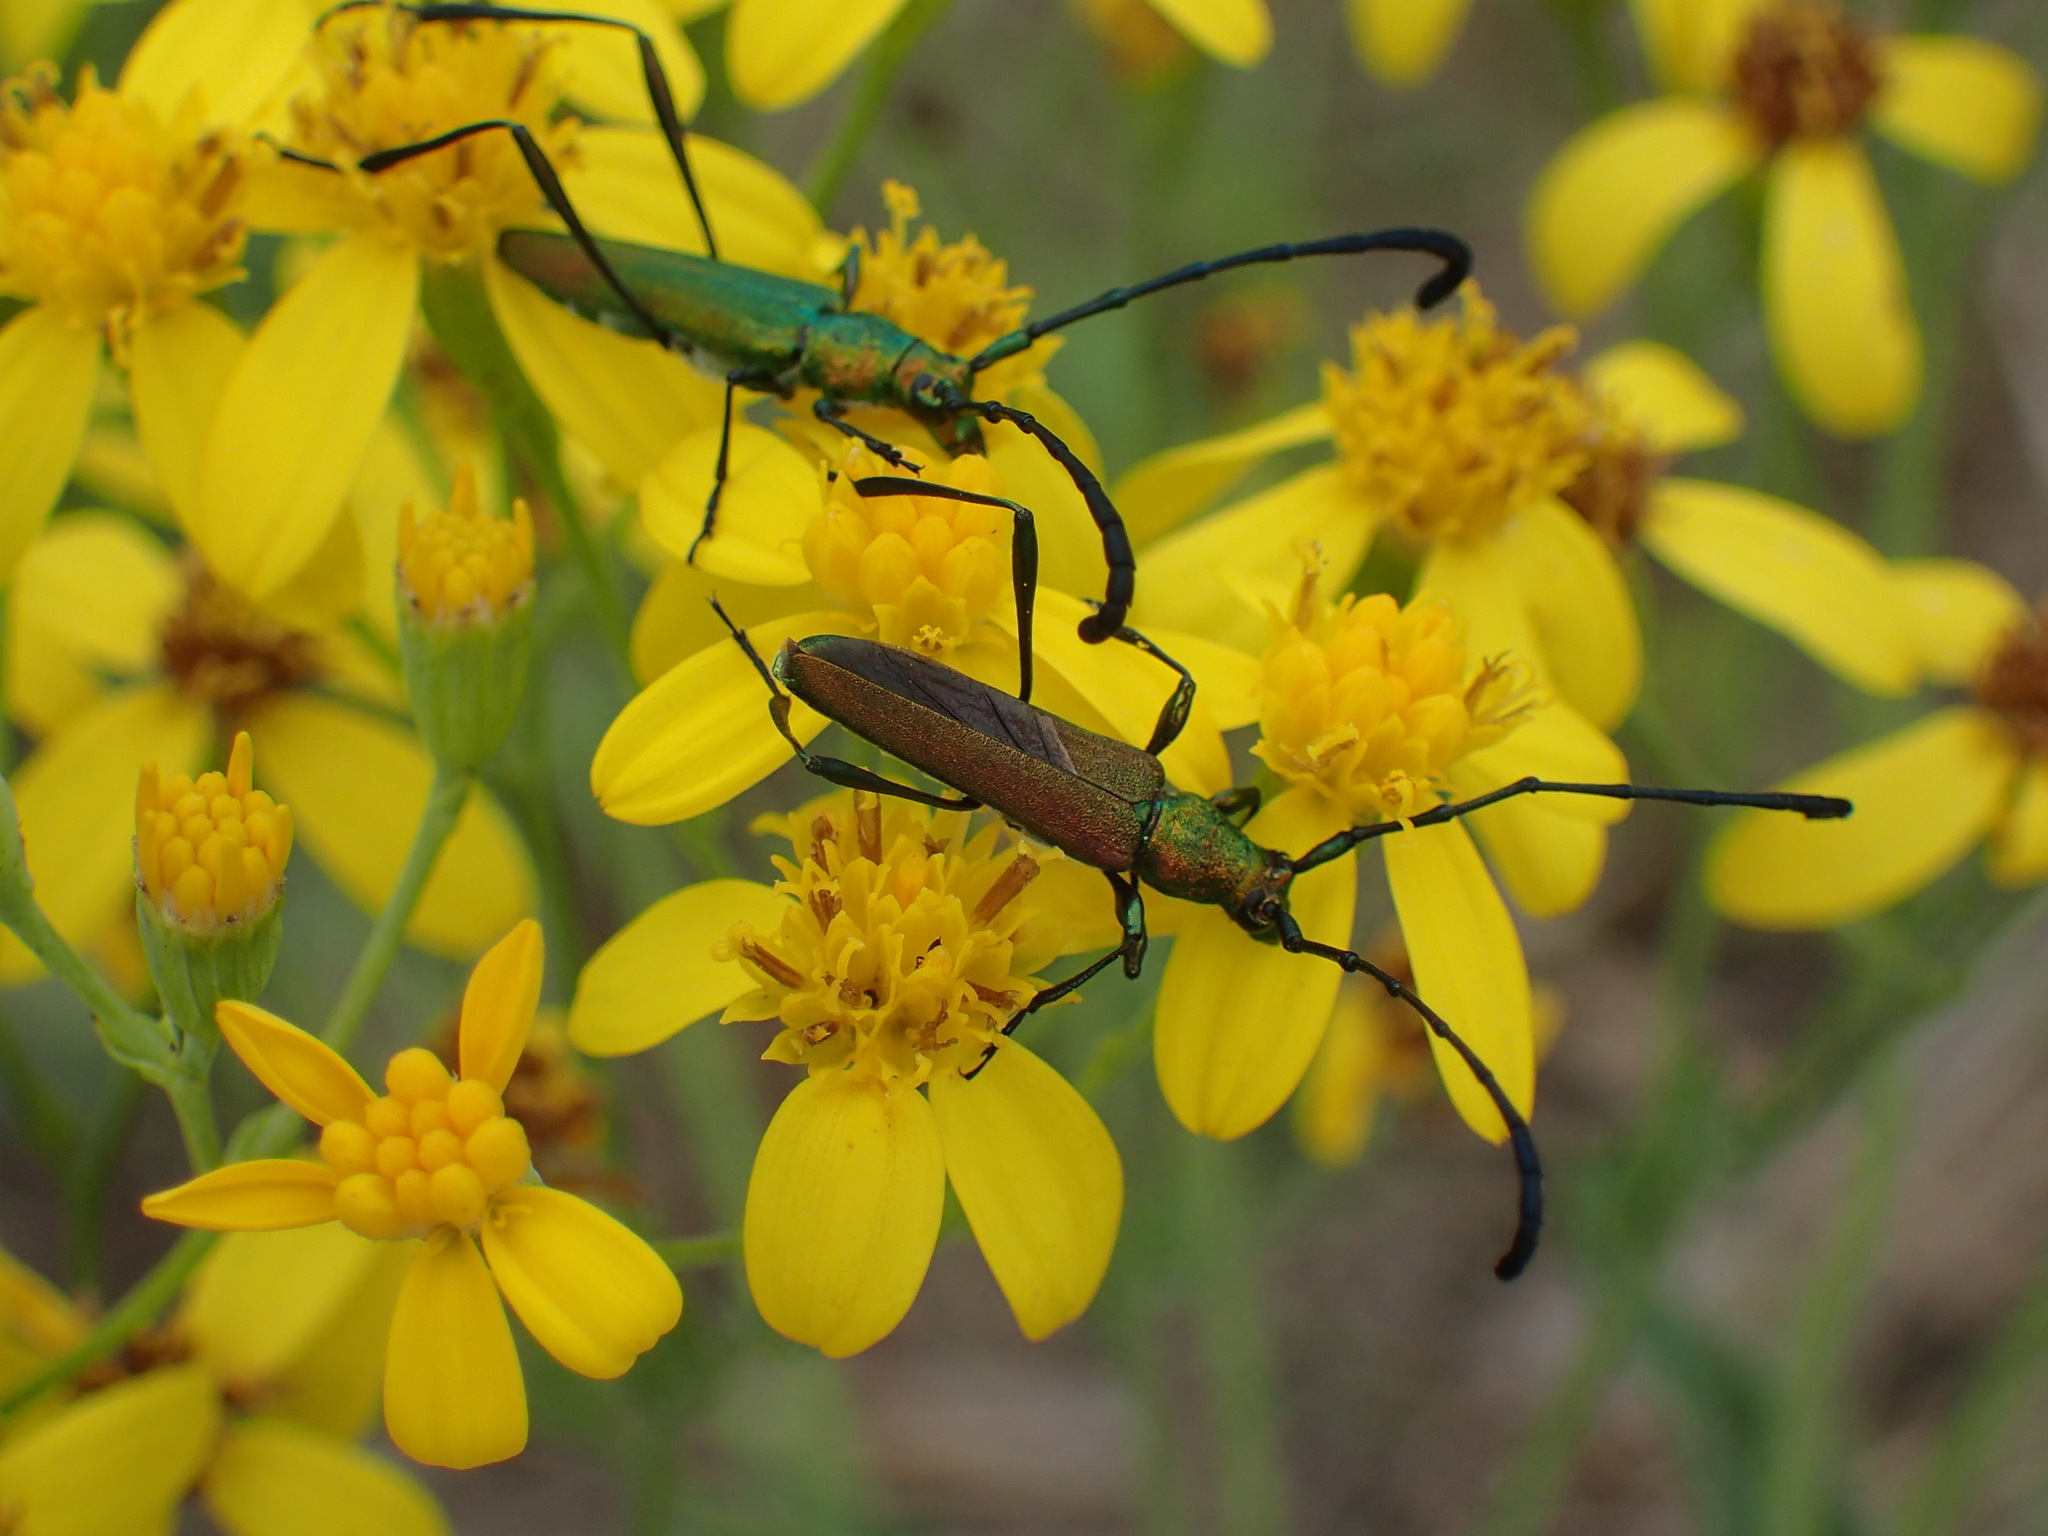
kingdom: Animalia
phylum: Arthropoda
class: Insecta
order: Coleoptera
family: Cerambycidae
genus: Hypocrites
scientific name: Hypocrites
